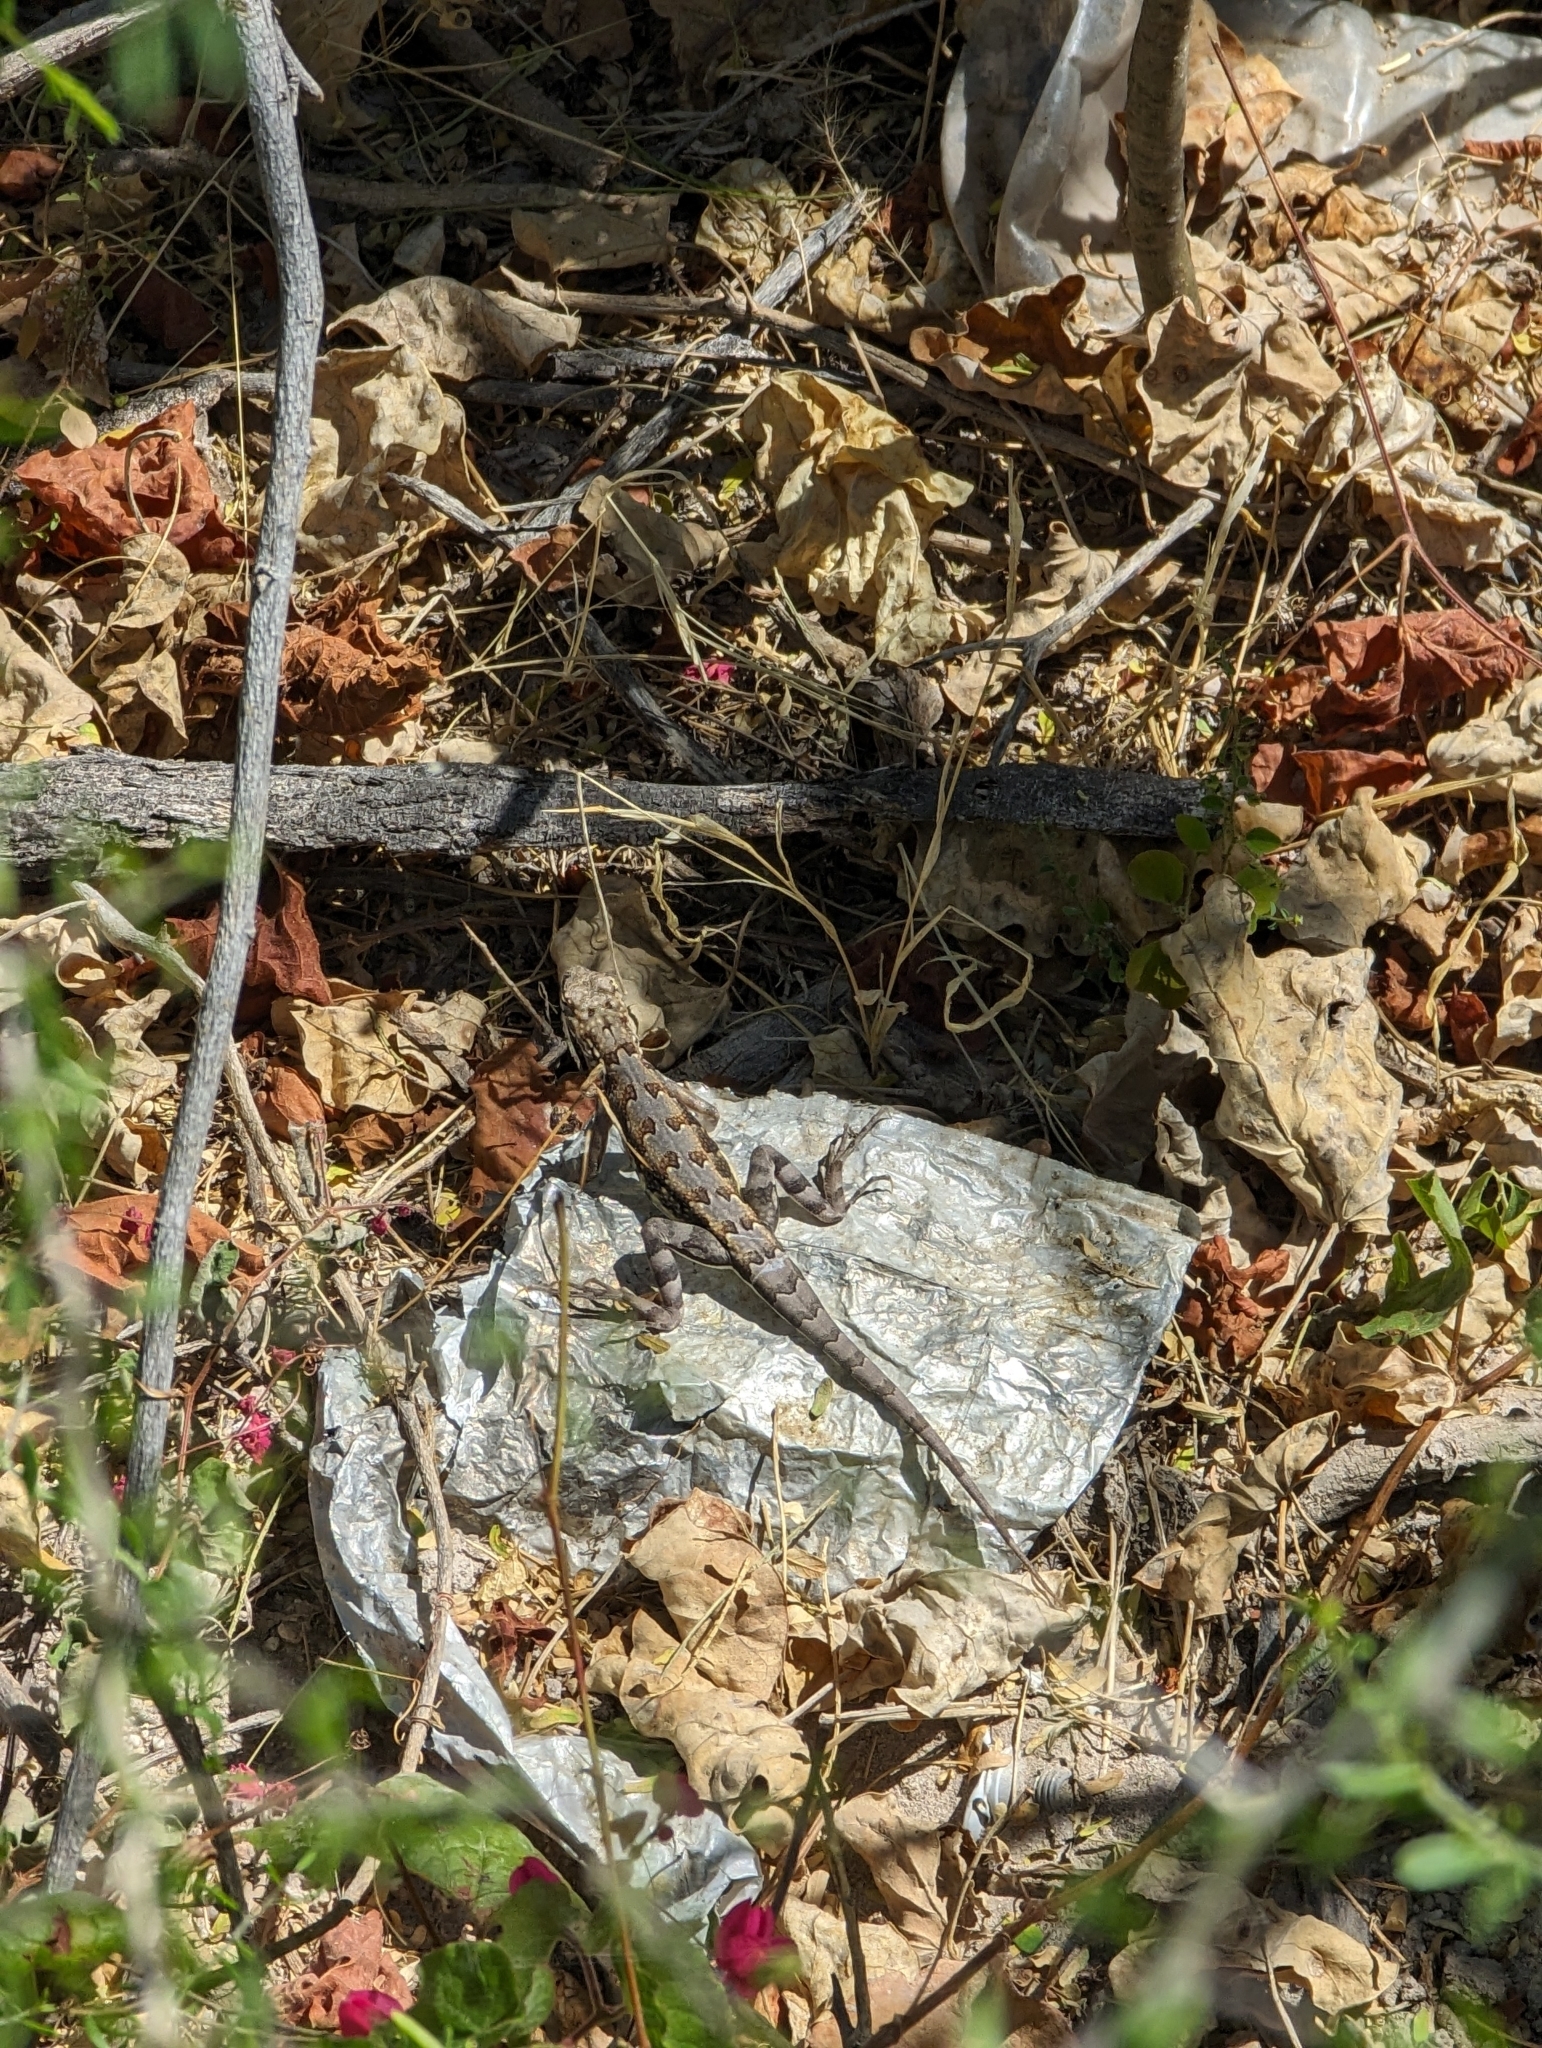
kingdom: Animalia
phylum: Chordata
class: Squamata
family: Phrynosomatidae
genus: Callisaurus
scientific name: Callisaurus draconoides
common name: Zebra-tailed lizard
